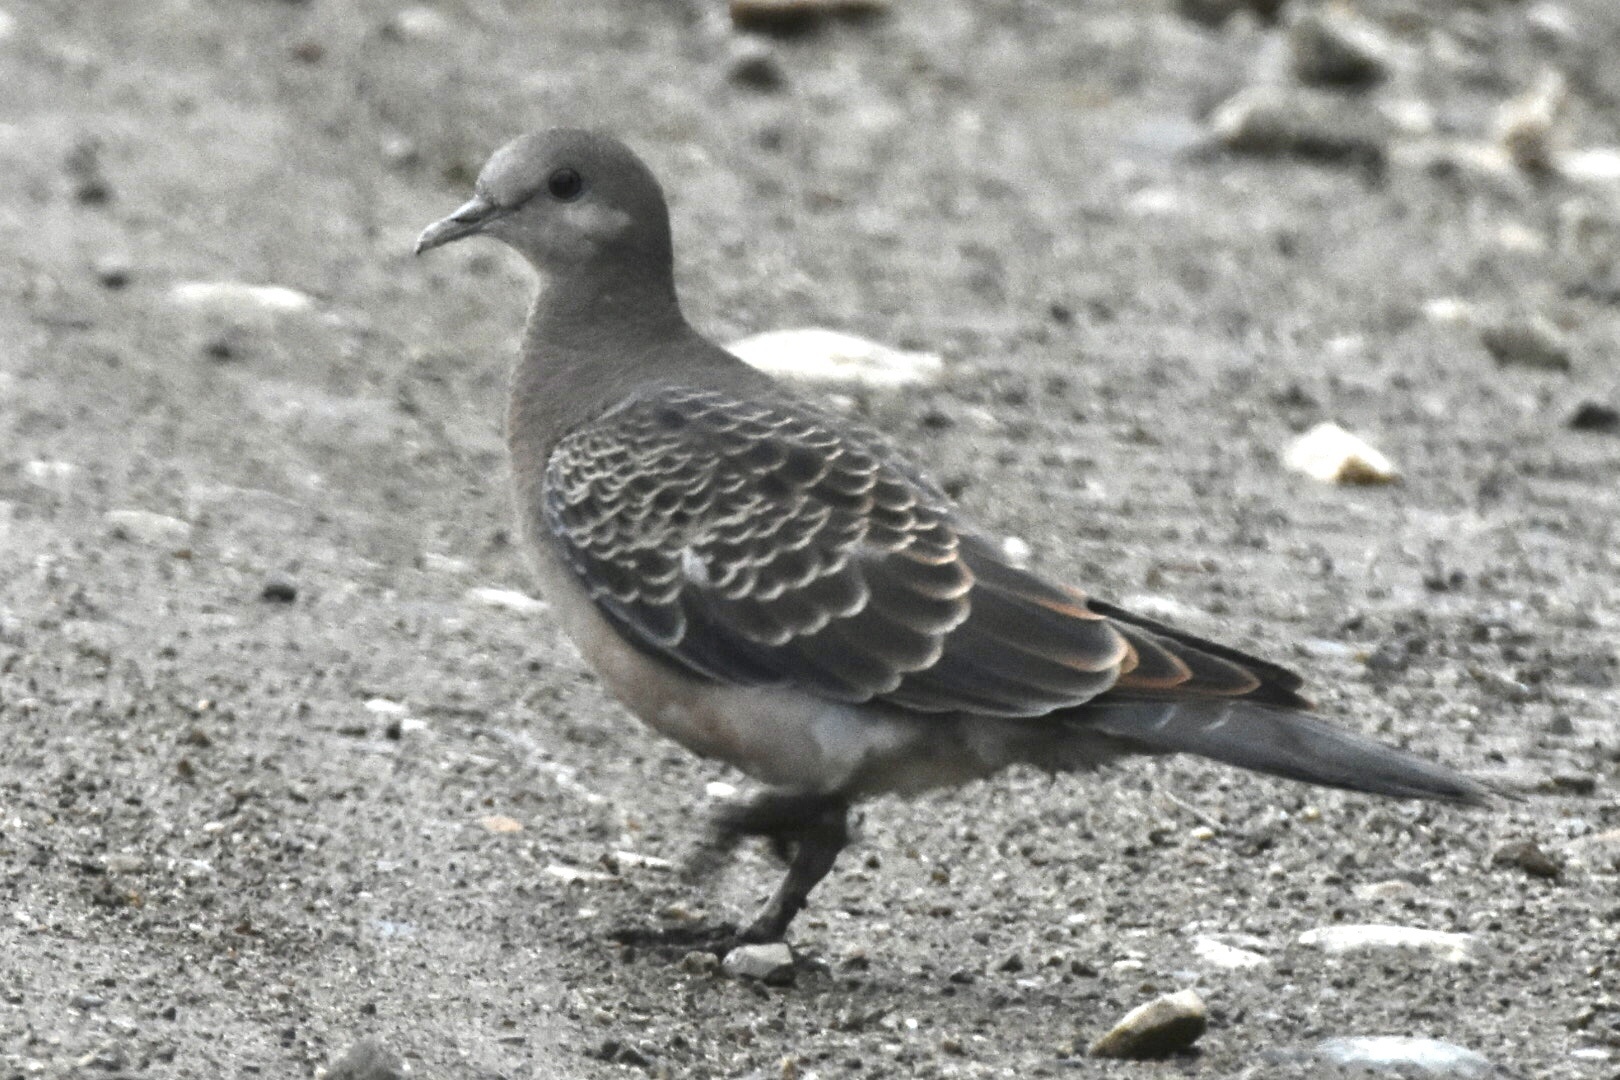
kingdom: Animalia
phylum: Chordata
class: Aves
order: Columbiformes
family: Columbidae
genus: Streptopelia
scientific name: Streptopelia orientalis
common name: Oriental turtle dove
